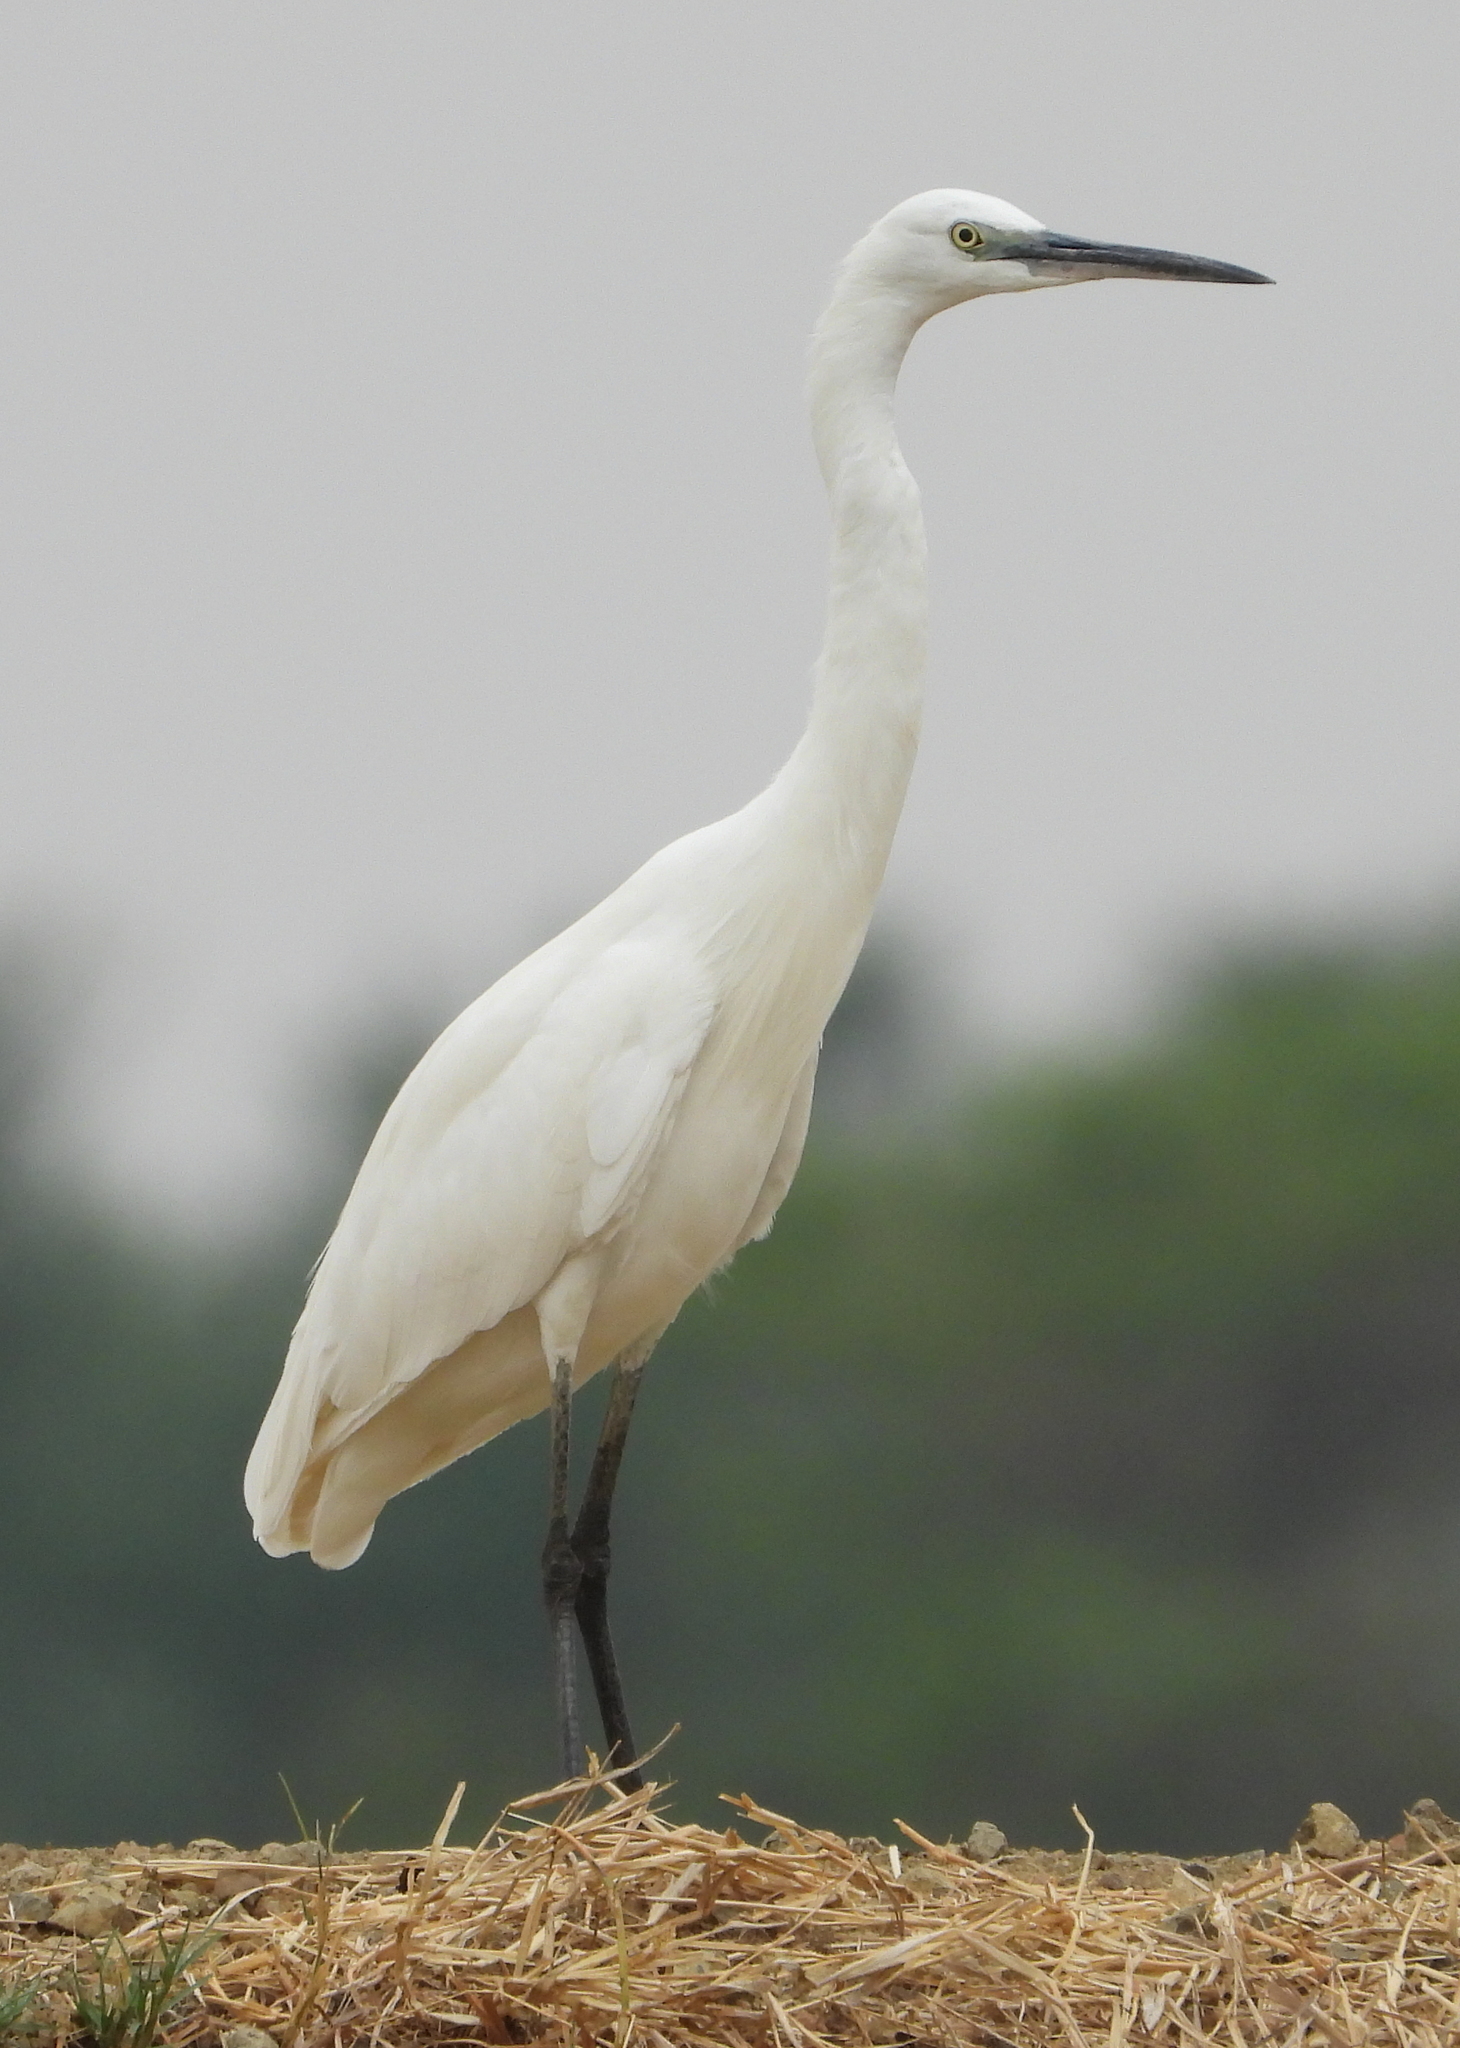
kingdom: Animalia
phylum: Chordata
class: Aves
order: Pelecaniformes
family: Ardeidae
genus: Egretta
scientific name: Egretta garzetta
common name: Little egret
